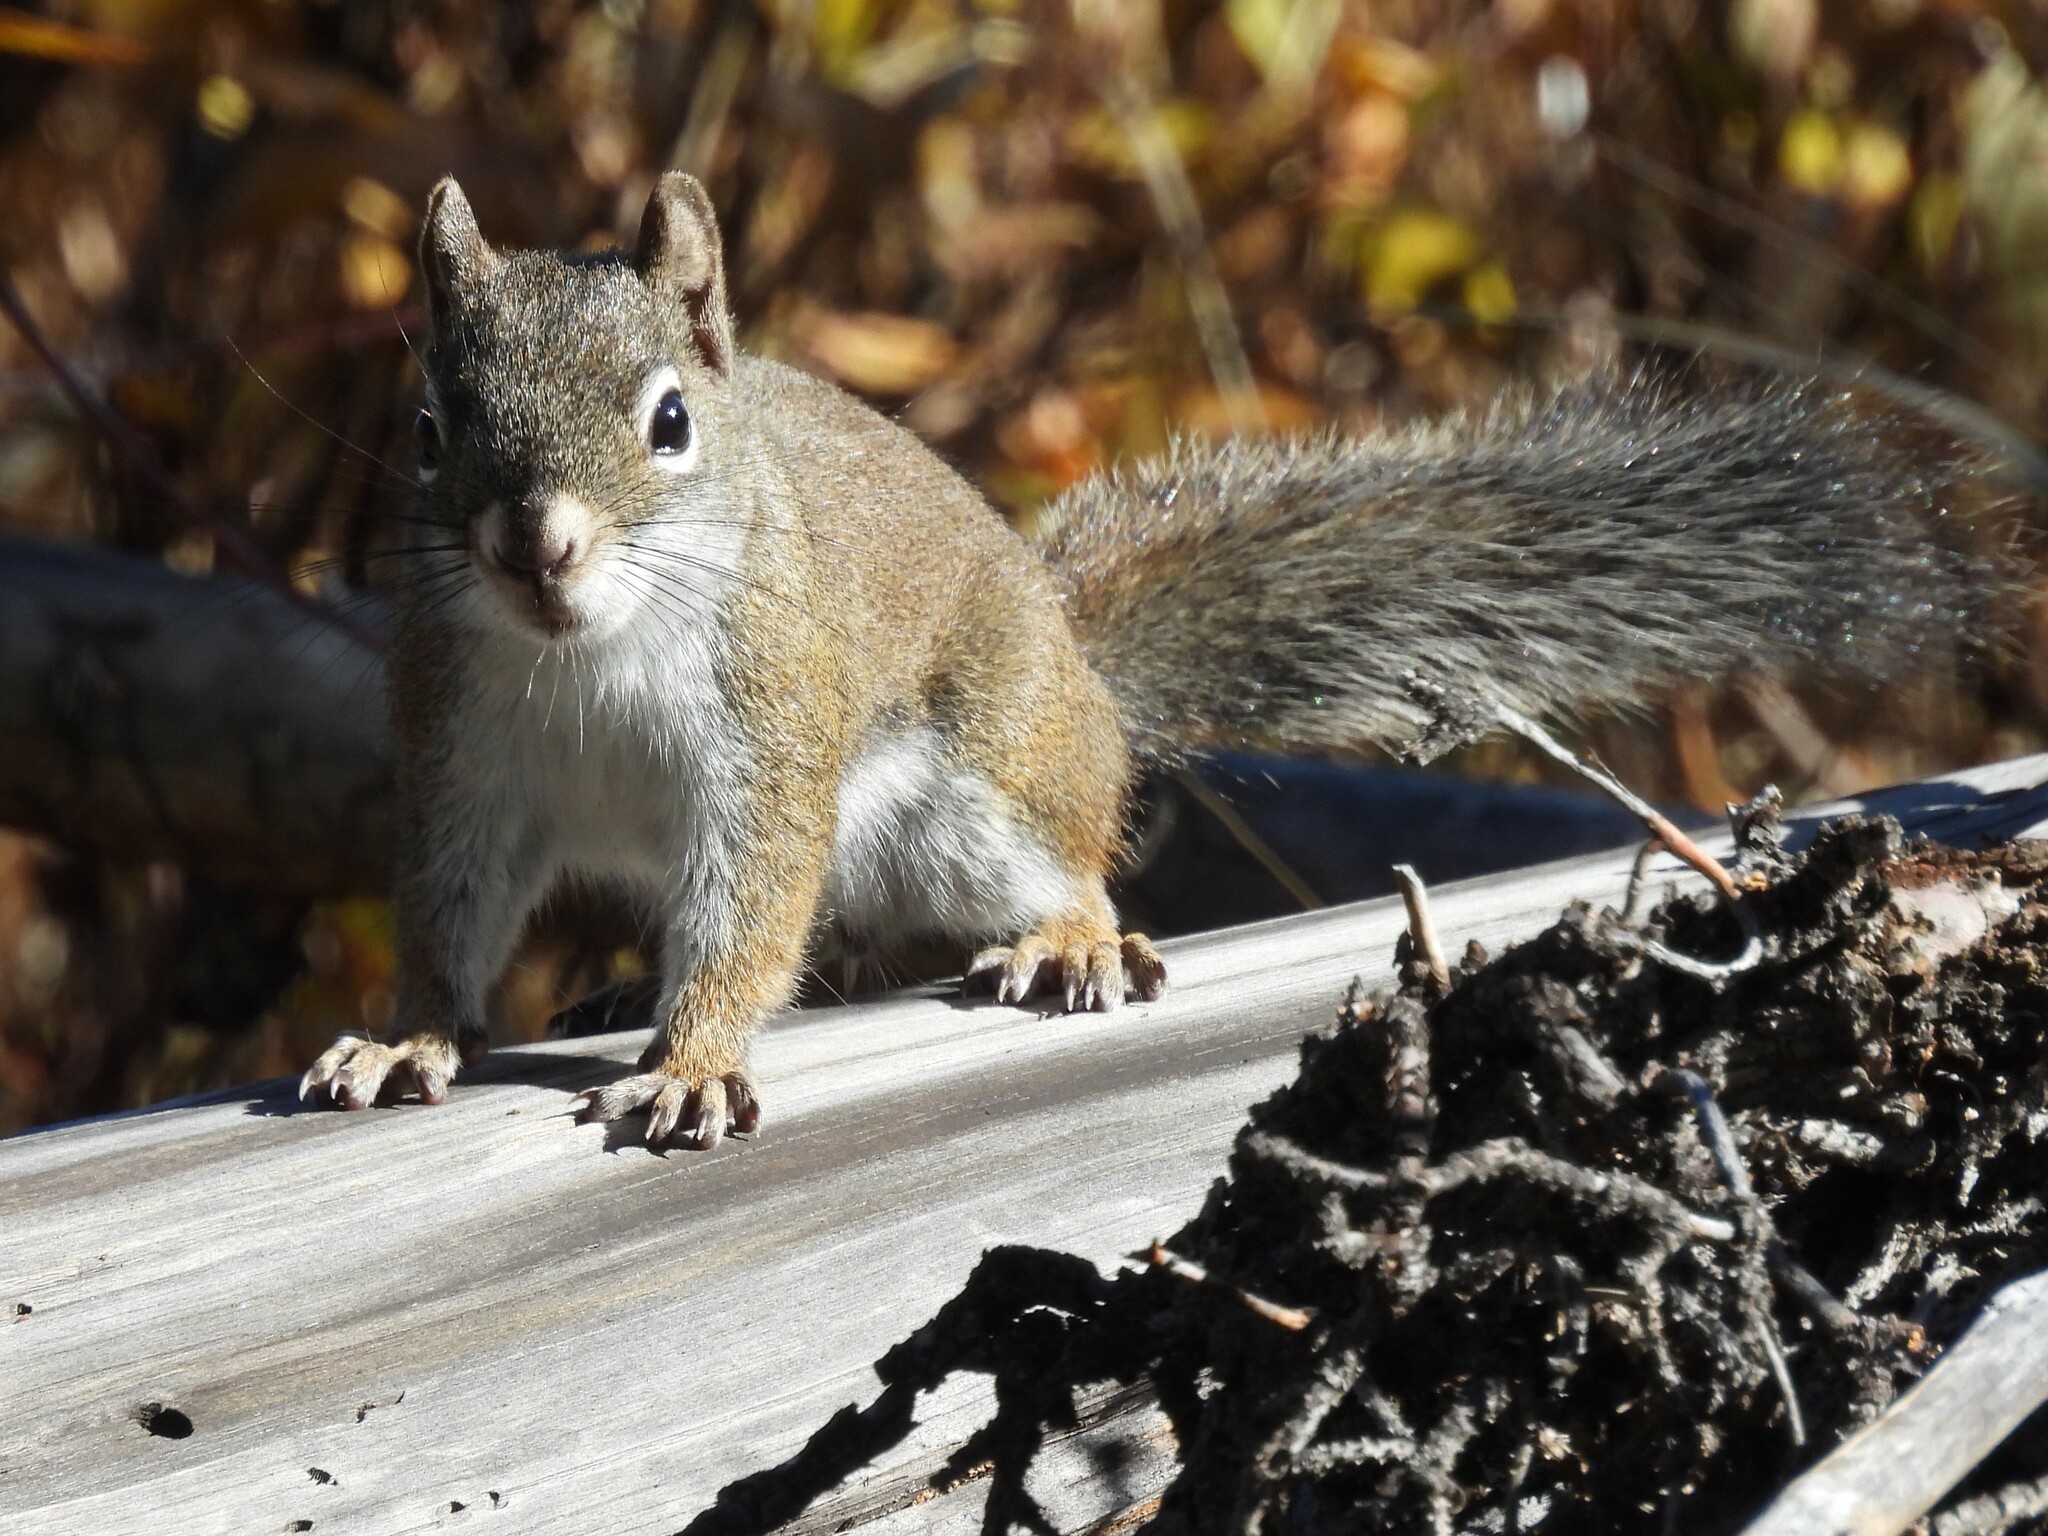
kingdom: Animalia
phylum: Chordata
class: Mammalia
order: Rodentia
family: Sciuridae
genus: Tamiasciurus
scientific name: Tamiasciurus hudsonicus
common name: Red squirrel
